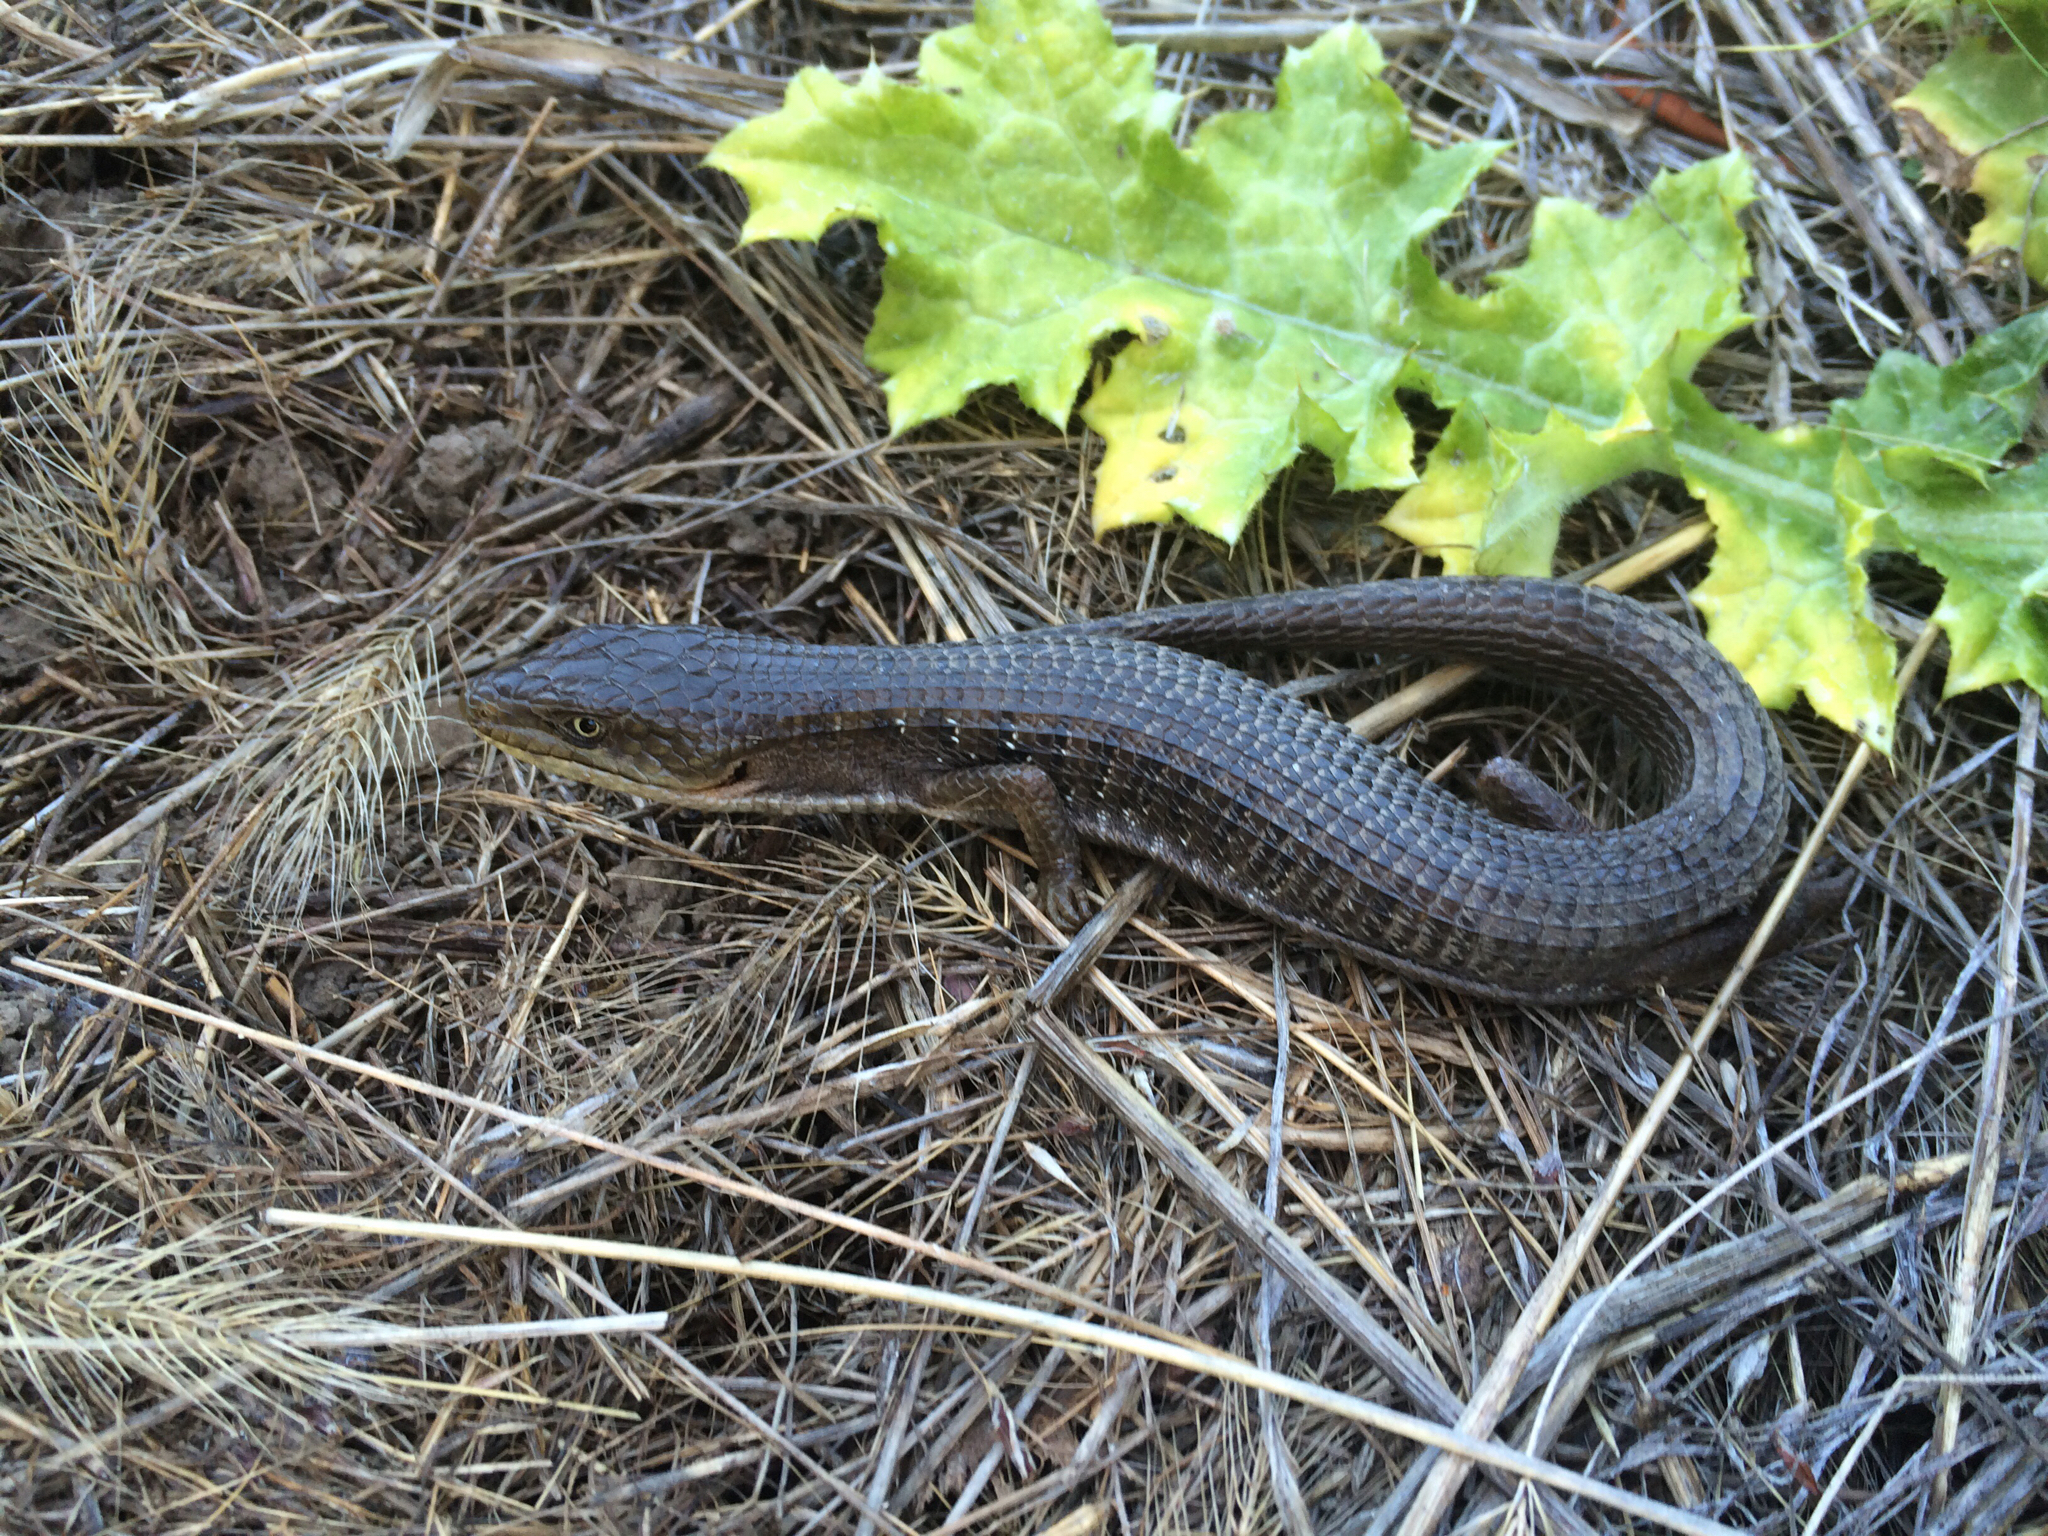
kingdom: Animalia
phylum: Chordata
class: Squamata
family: Anguidae
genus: Elgaria
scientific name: Elgaria multicarinata
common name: Southern alligator lizard
